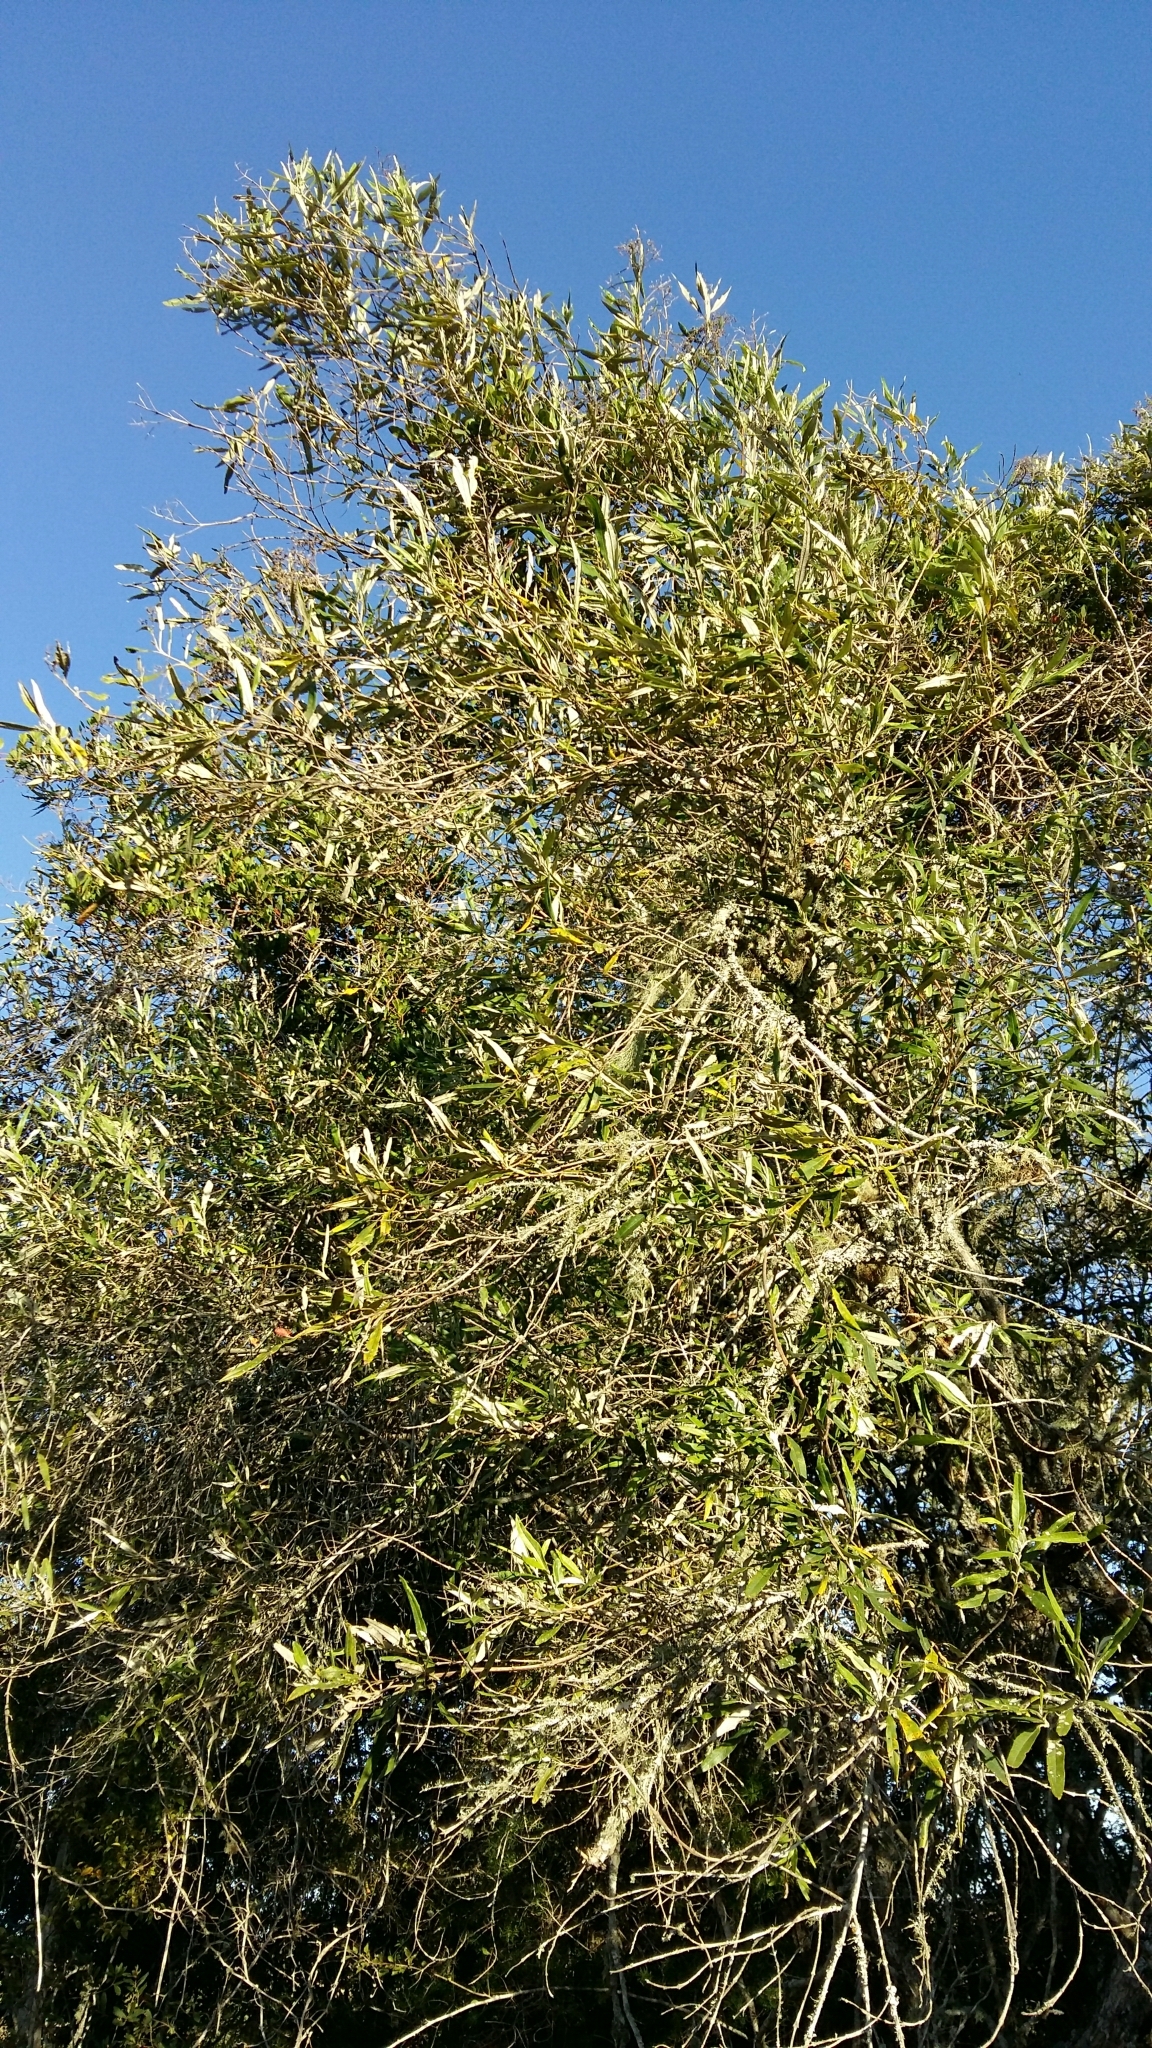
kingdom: Plantae
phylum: Tracheophyta
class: Magnoliopsida
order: Lamiales
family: Scrophulariaceae
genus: Buddleja
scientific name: Buddleja saligna
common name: False olive
